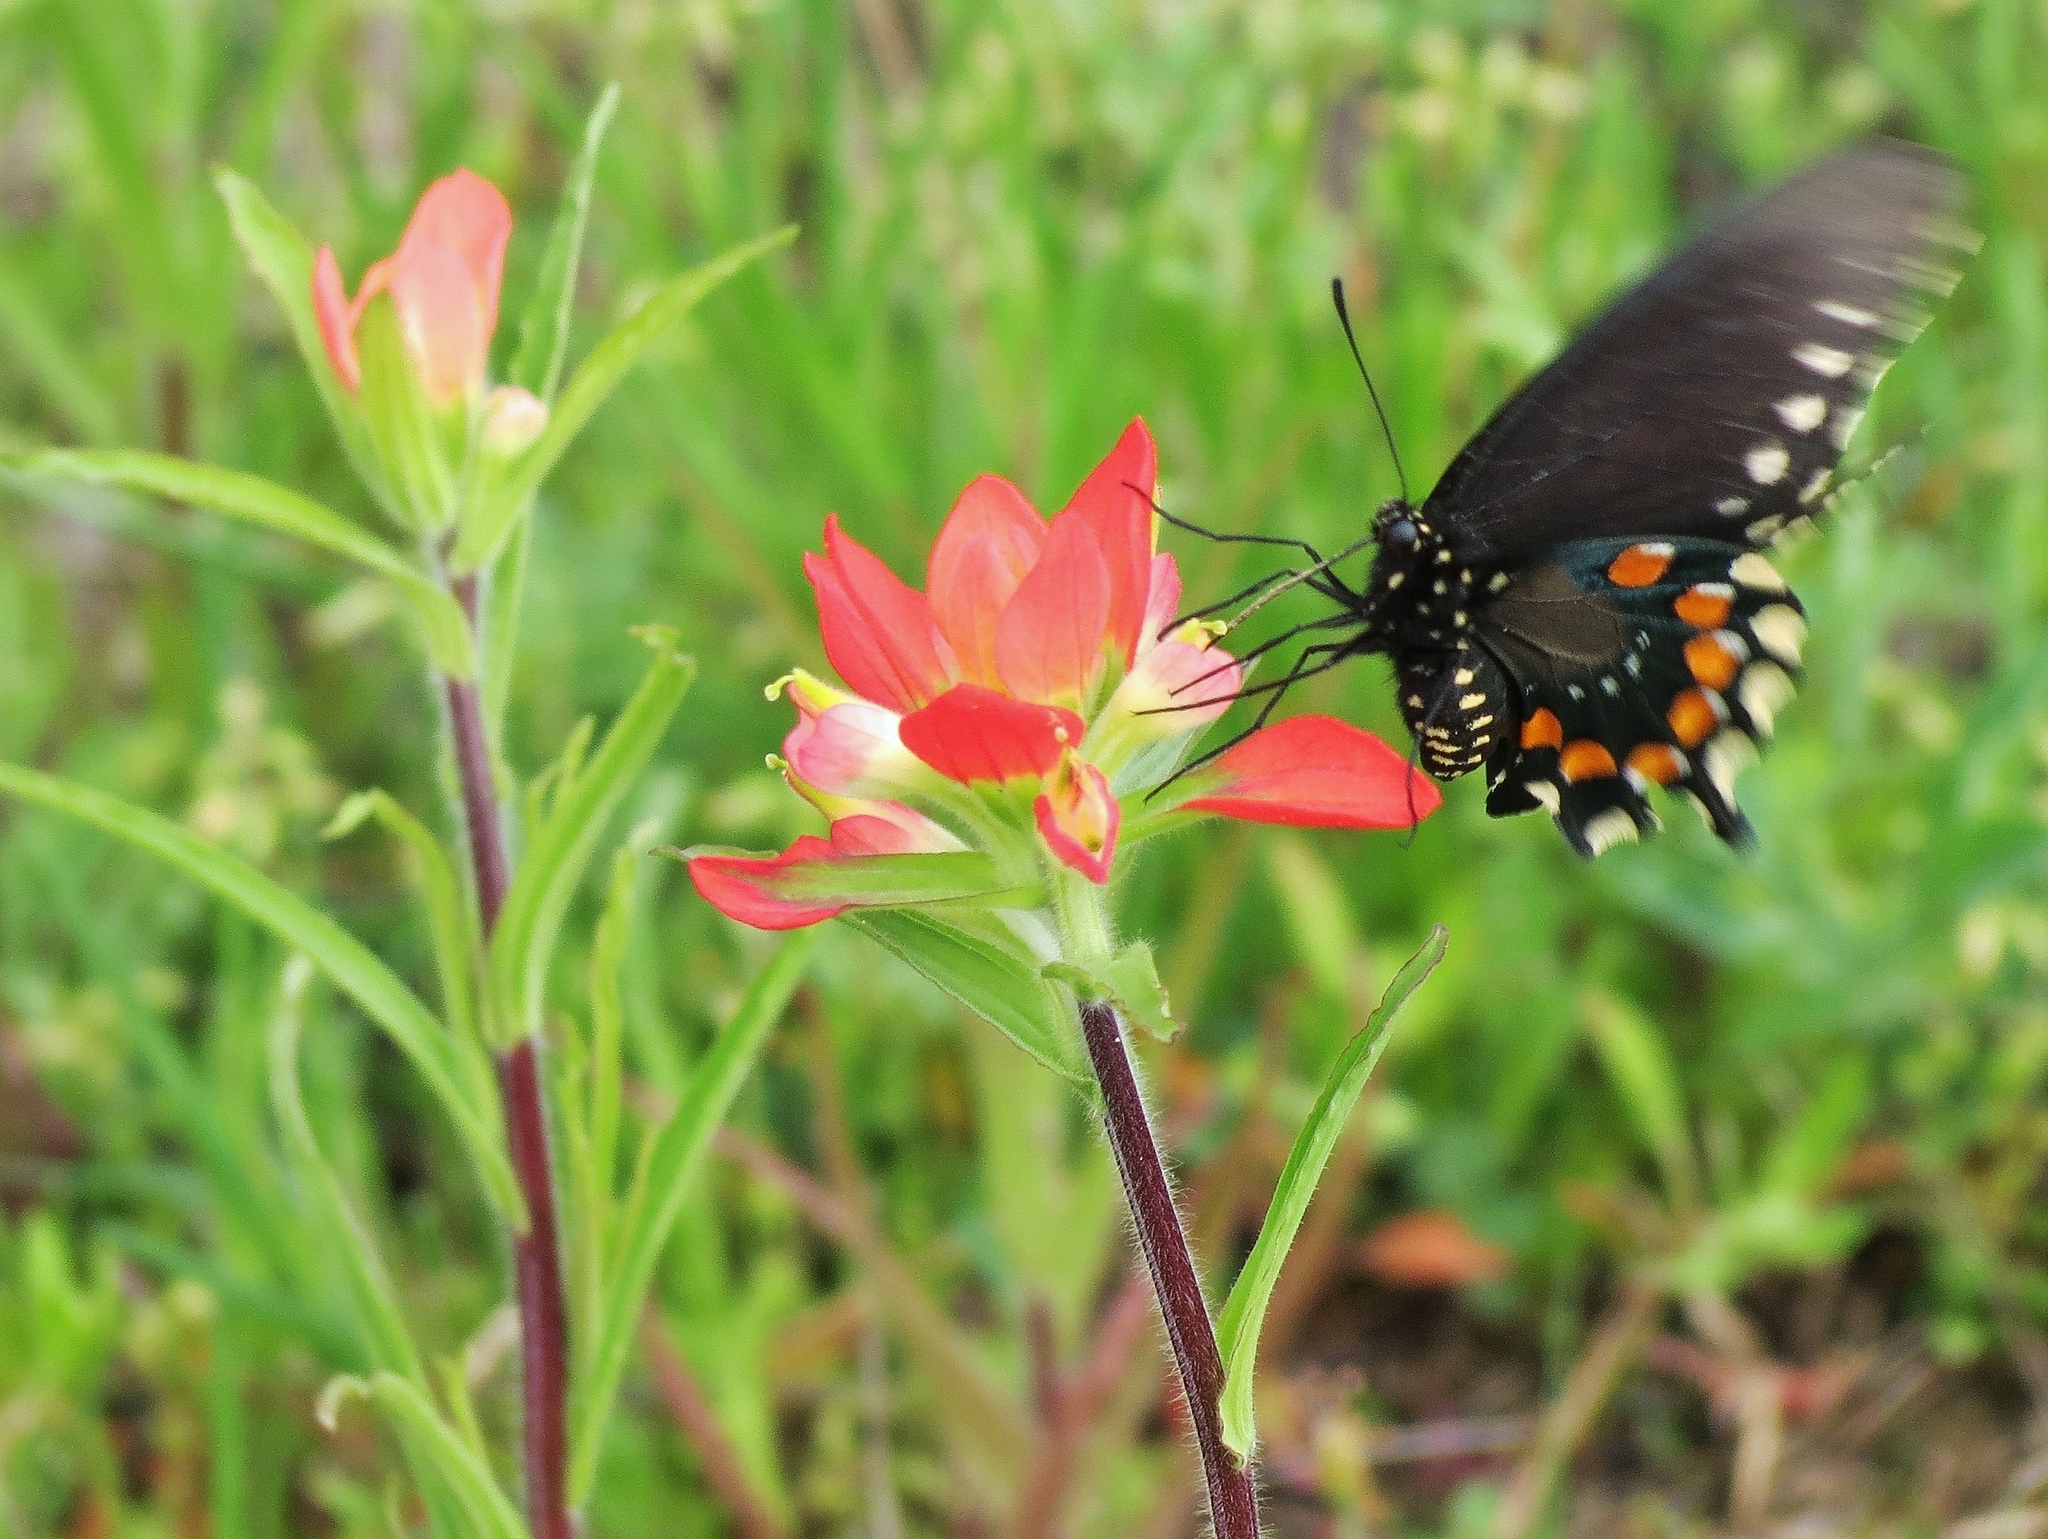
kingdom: Animalia
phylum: Arthropoda
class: Insecta
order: Lepidoptera
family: Papilionidae
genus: Battus
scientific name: Battus philenor
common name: Pipevine swallowtail
